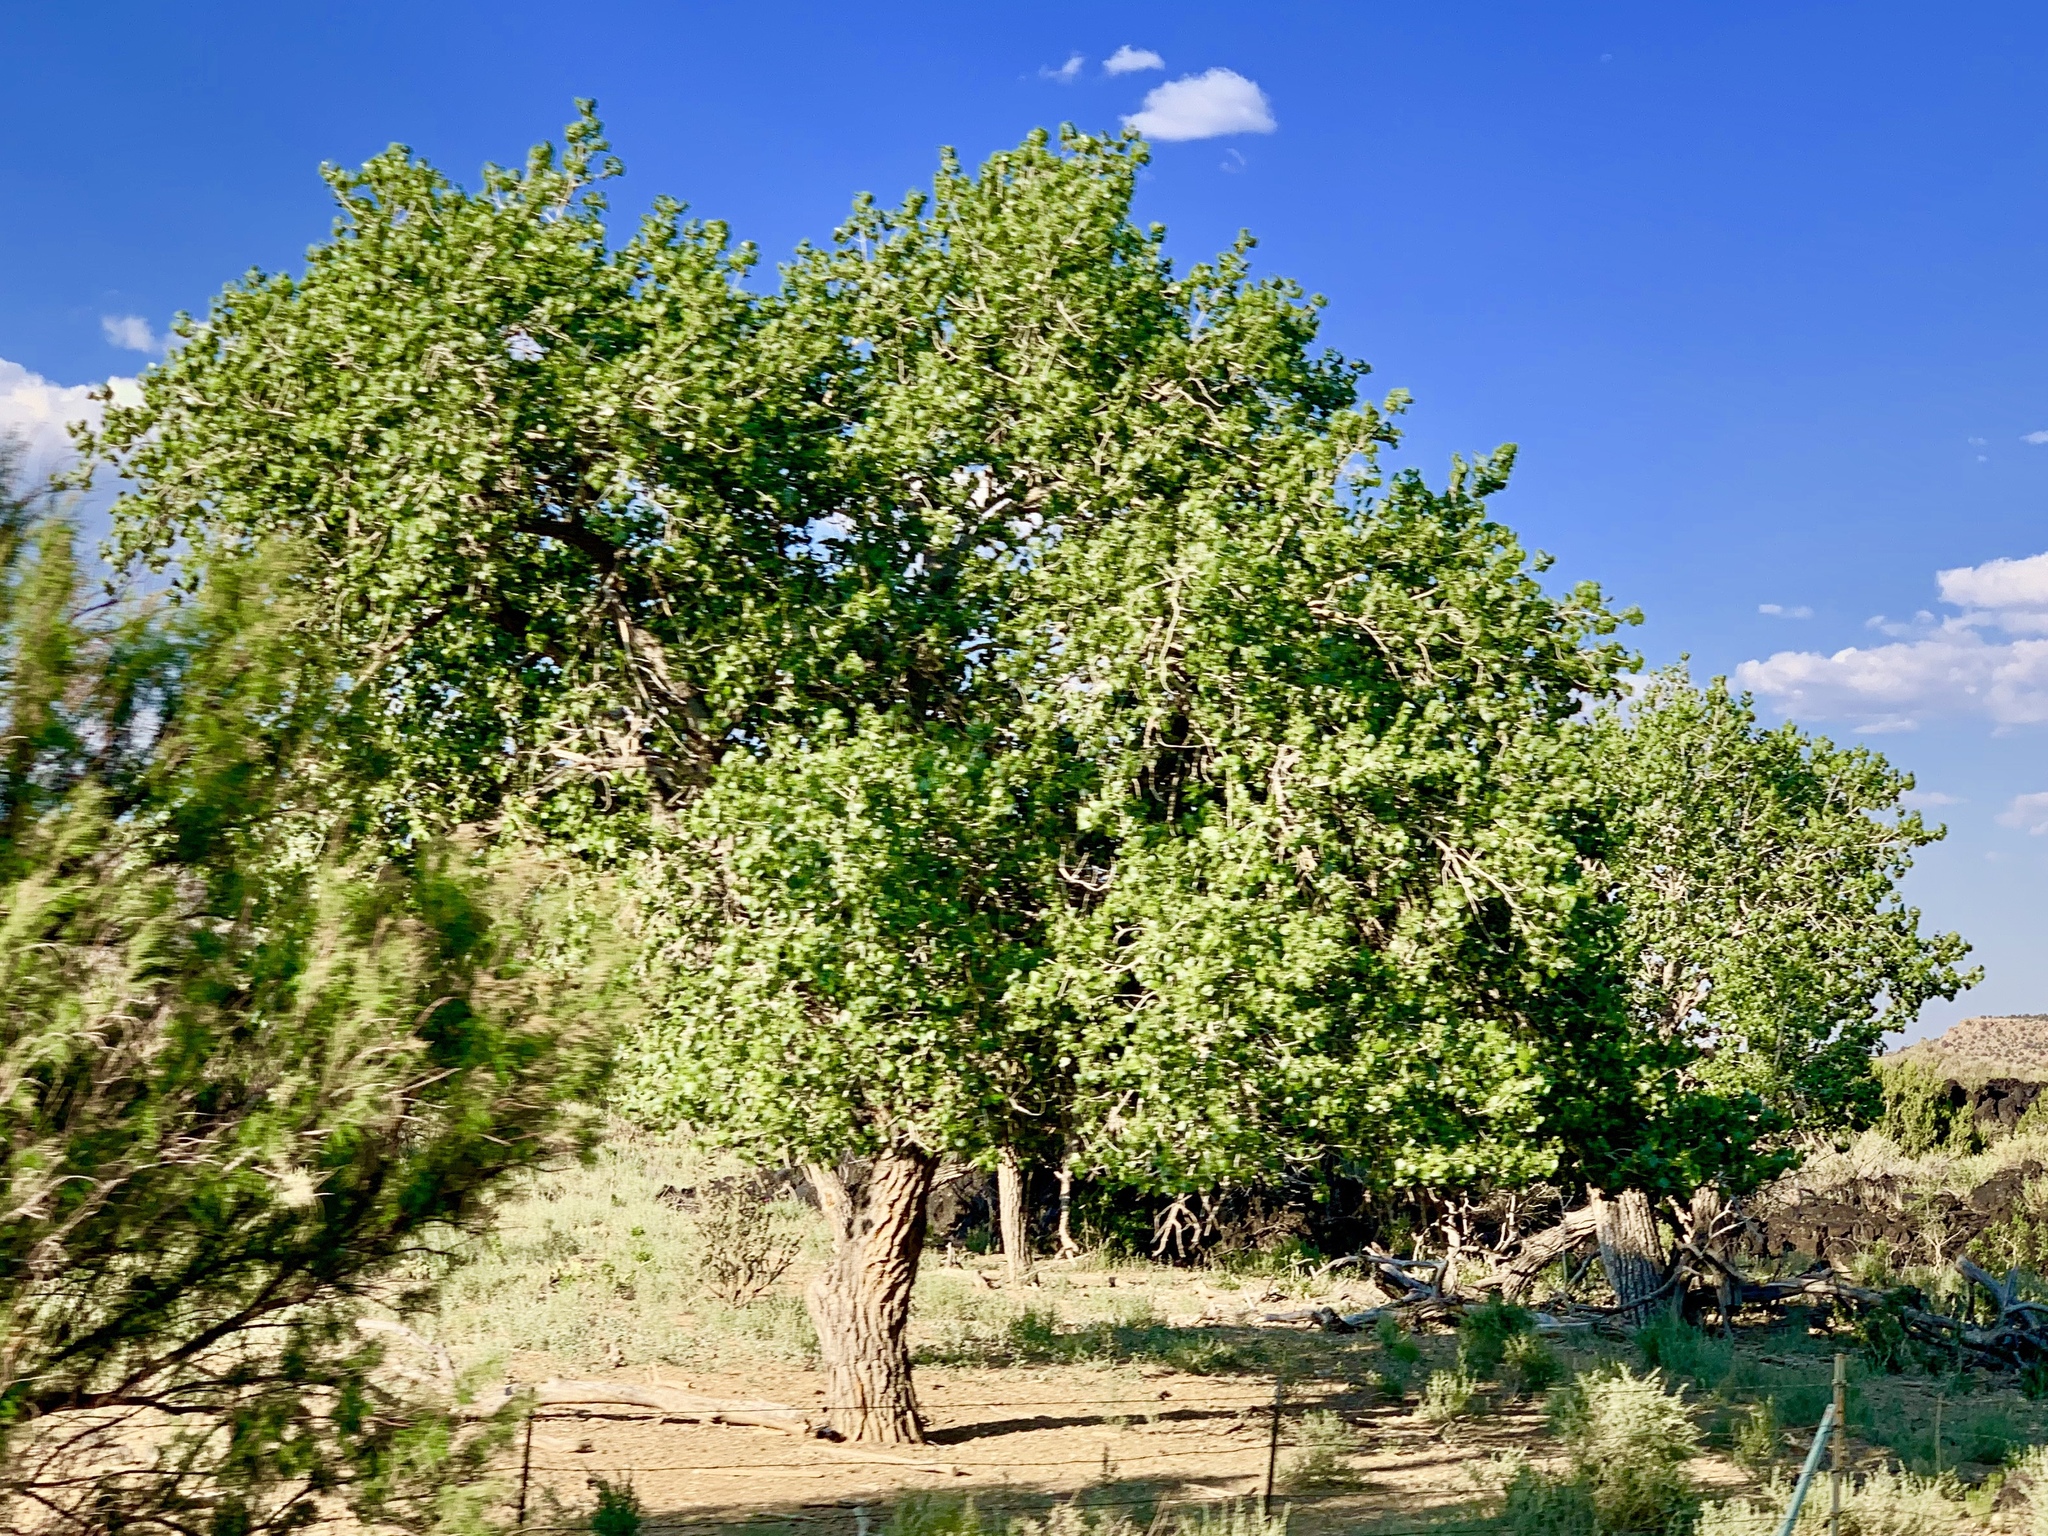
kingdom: Plantae
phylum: Tracheophyta
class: Magnoliopsida
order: Malpighiales
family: Salicaceae
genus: Populus
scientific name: Populus fremontii
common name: Fremont's cottonwood
